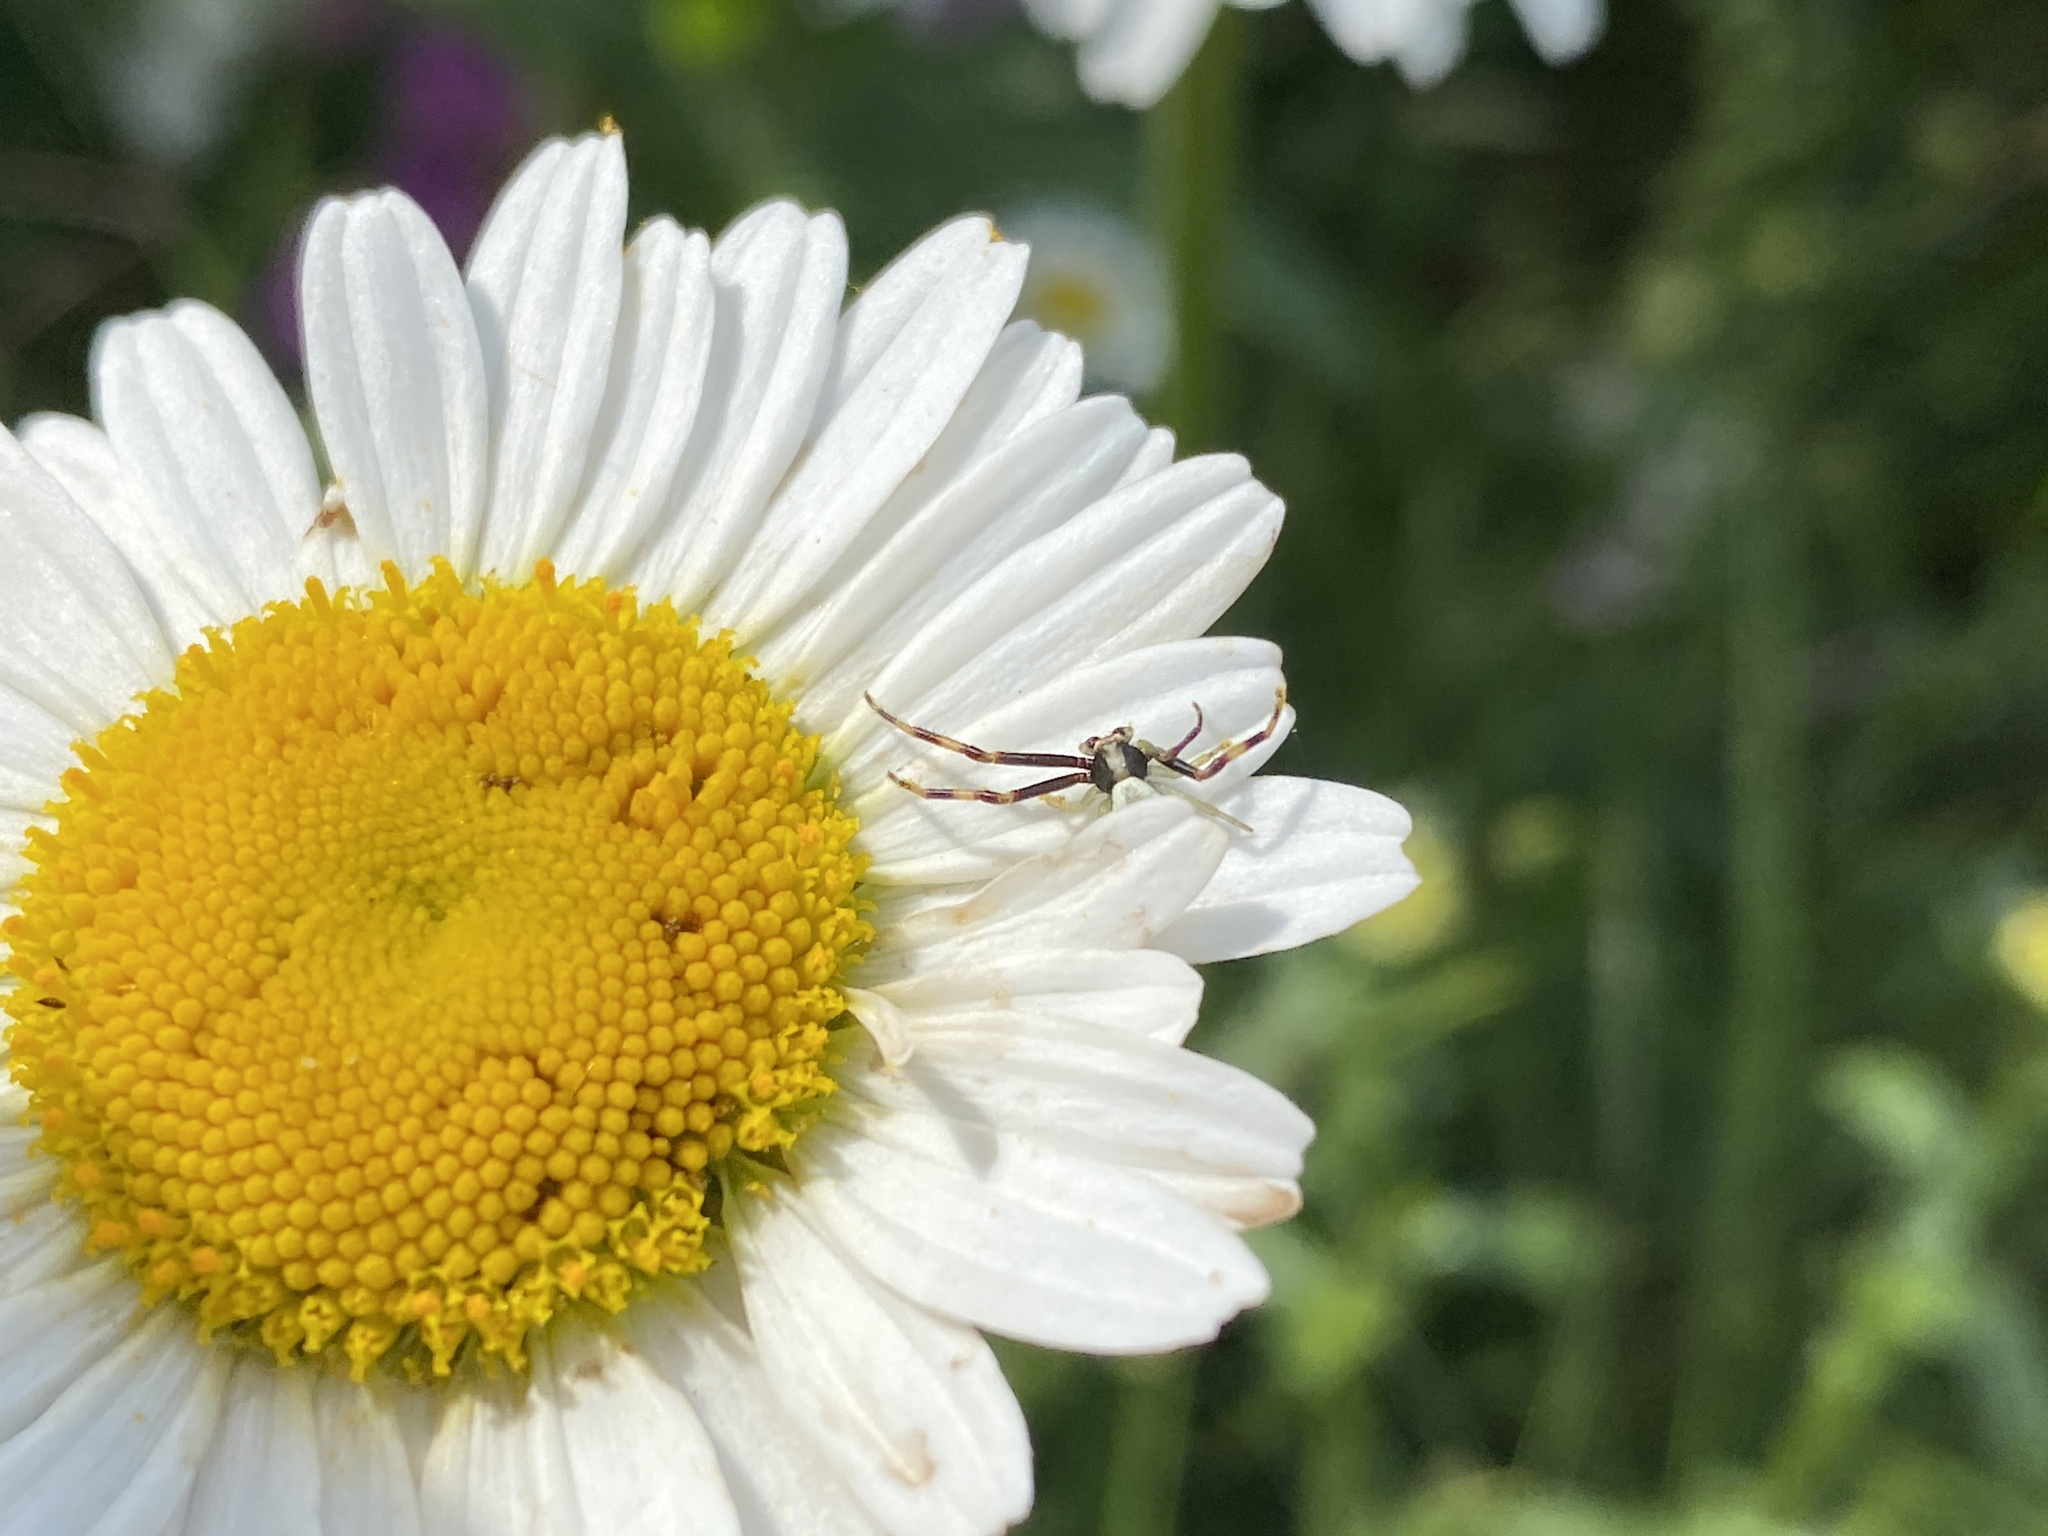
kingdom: Animalia
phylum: Arthropoda
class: Arachnida
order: Araneae
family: Thomisidae
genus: Misumena
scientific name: Misumena vatia
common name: Goldenrod crab spider
